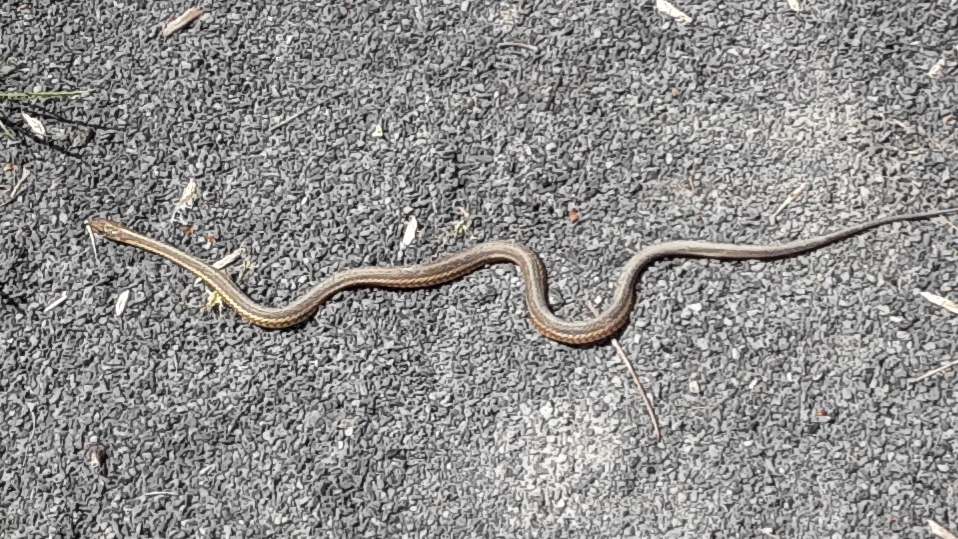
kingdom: Animalia
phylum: Chordata
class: Squamata
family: Colubridae
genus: Thamnophis
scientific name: Thamnophis sirtalis
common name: Common garter snake
